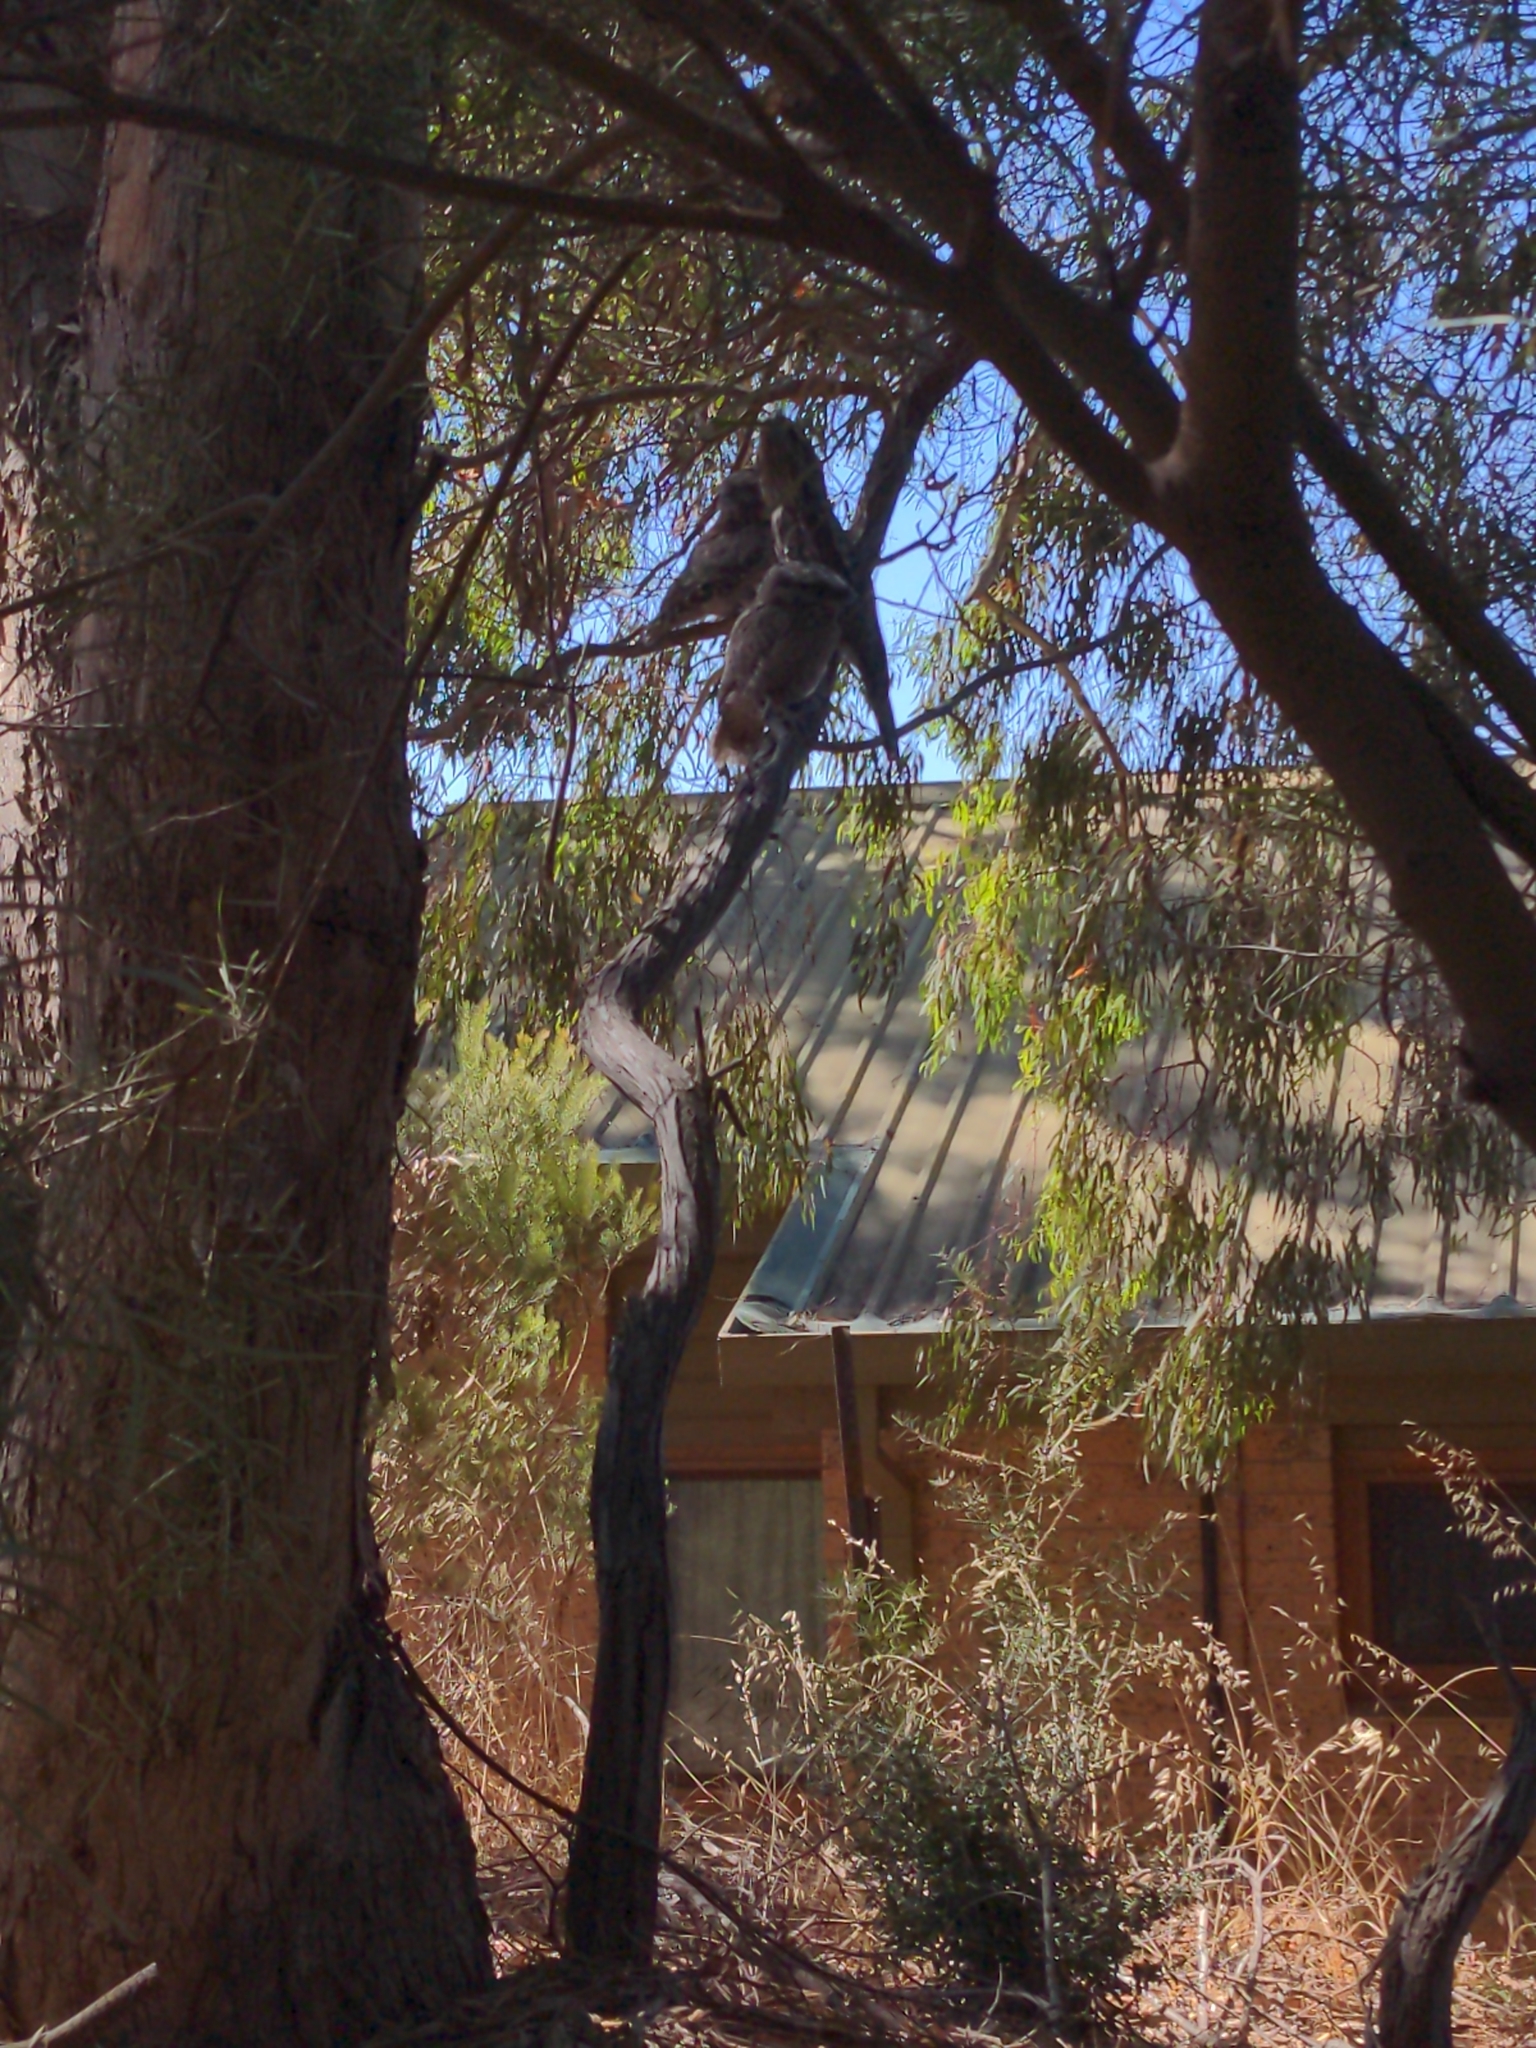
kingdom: Animalia
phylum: Chordata
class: Aves
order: Caprimulgiformes
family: Podargidae
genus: Podargus
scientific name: Podargus strigoides
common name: Tawny frogmouth
